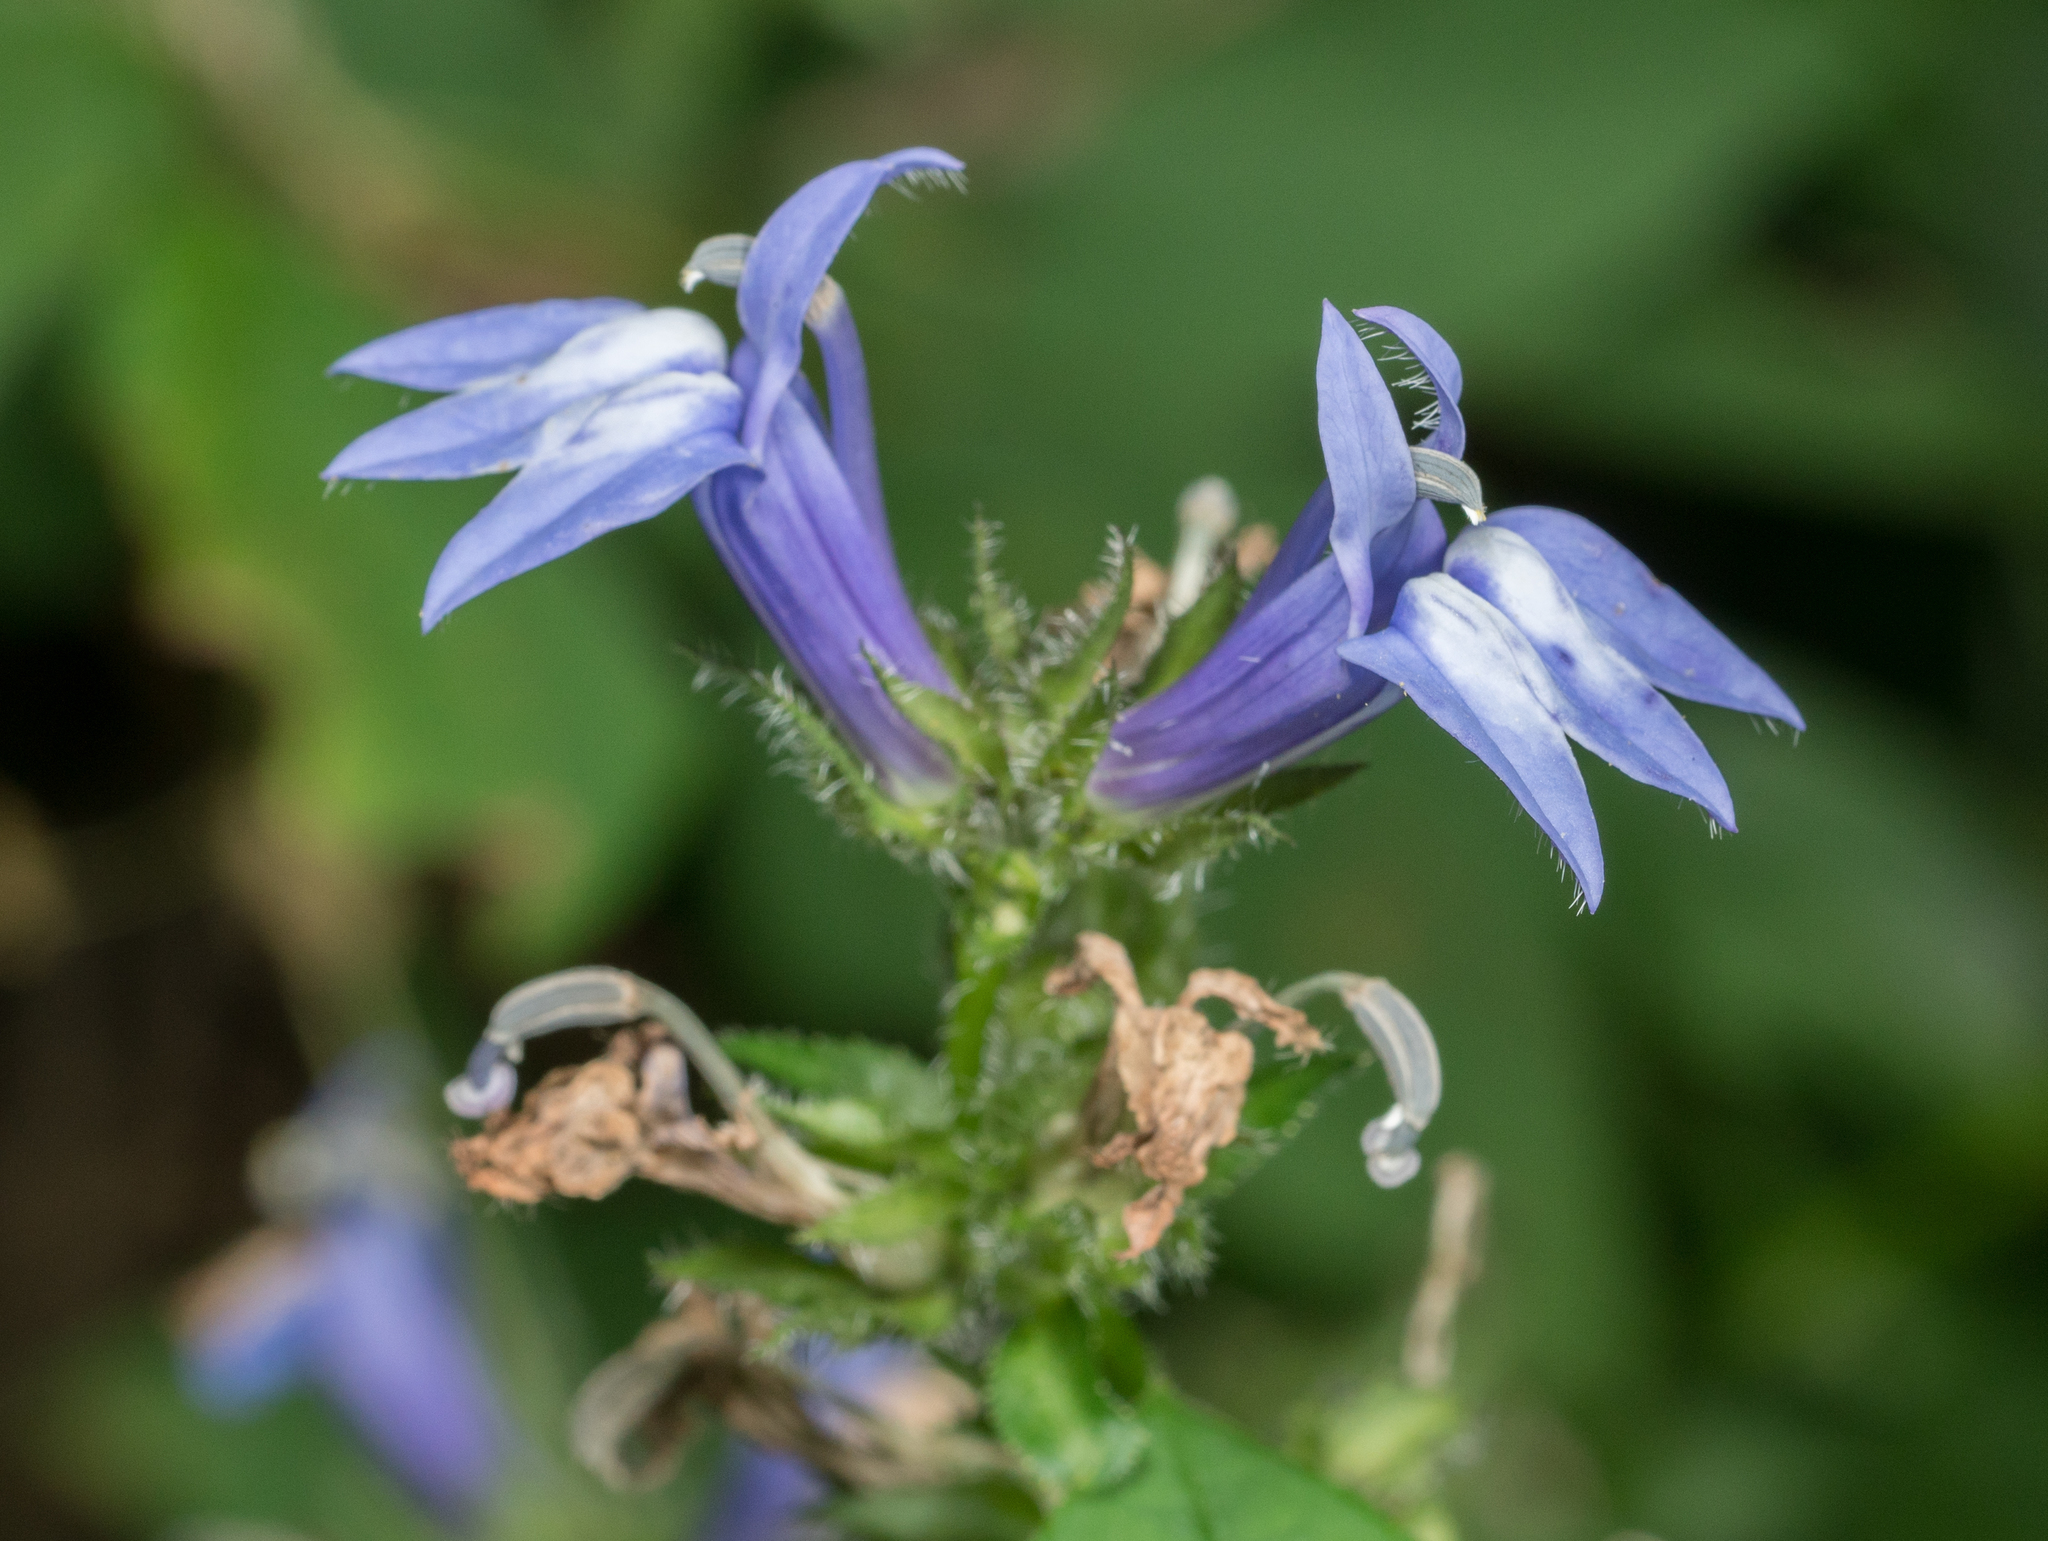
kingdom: Plantae
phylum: Tracheophyta
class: Magnoliopsida
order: Asterales
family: Campanulaceae
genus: Lobelia
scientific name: Lobelia siphilitica
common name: Great lobelia
